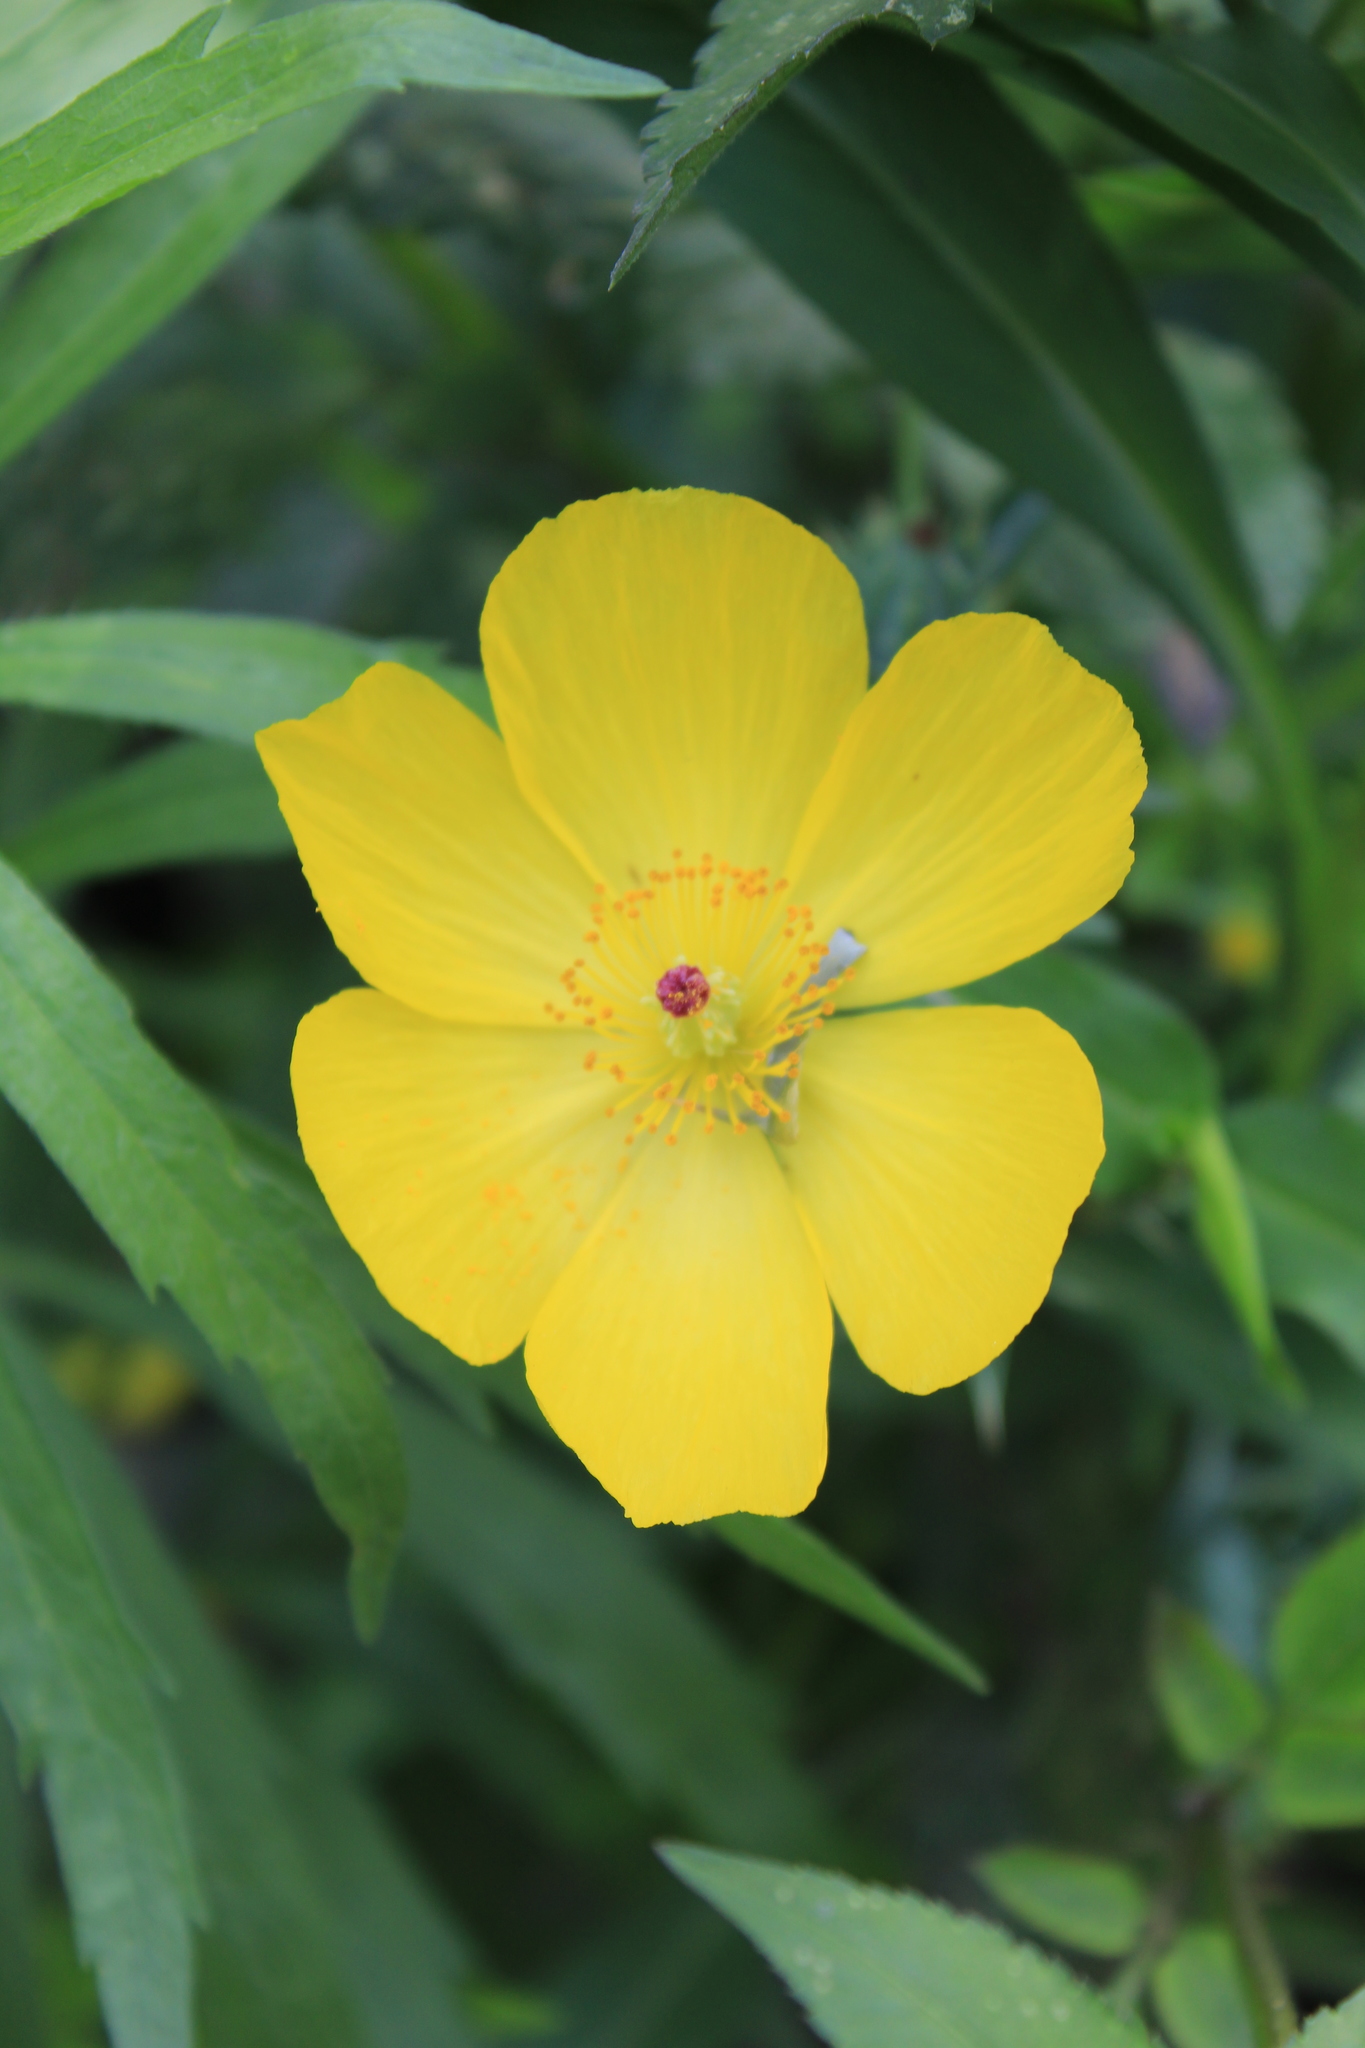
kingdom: Plantae
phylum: Tracheophyta
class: Magnoliopsida
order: Ranunculales
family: Papaveraceae
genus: Argemone
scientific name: Argemone mexicana
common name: Mexican poppy
